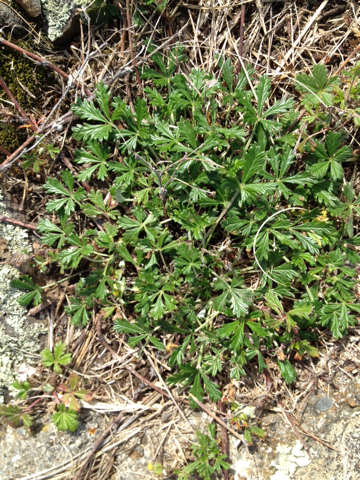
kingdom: Plantae
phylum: Tracheophyta
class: Magnoliopsida
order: Rosales
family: Rosaceae
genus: Potentilla
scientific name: Potentilla argentea
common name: Hoary cinquefoil
